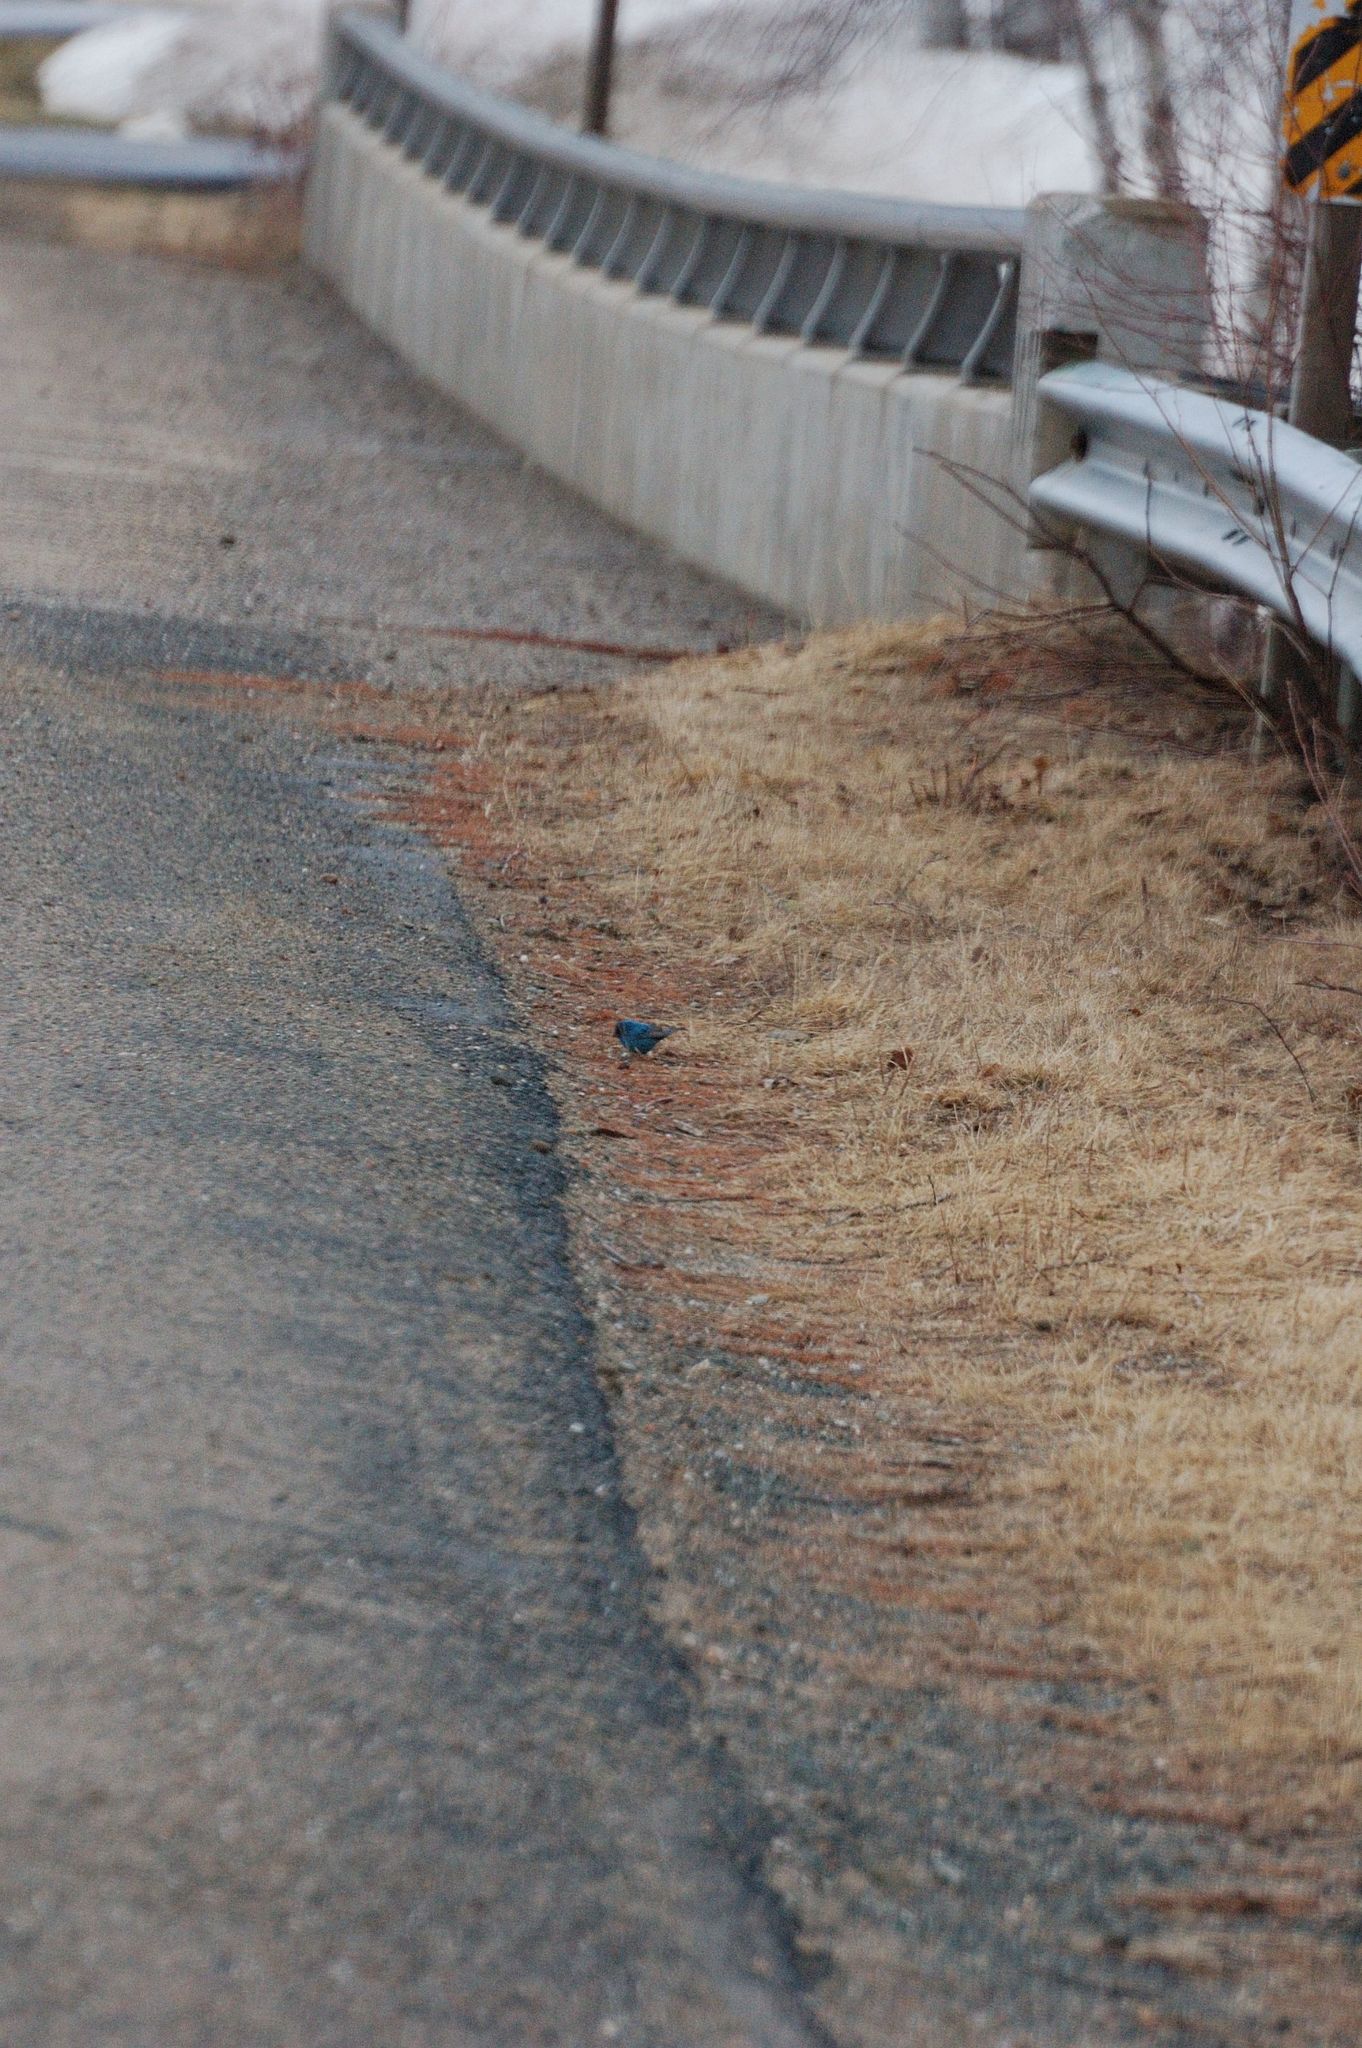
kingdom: Animalia
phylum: Chordata
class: Aves
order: Passeriformes
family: Cardinalidae
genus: Passerina
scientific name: Passerina cyanea
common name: Indigo bunting
